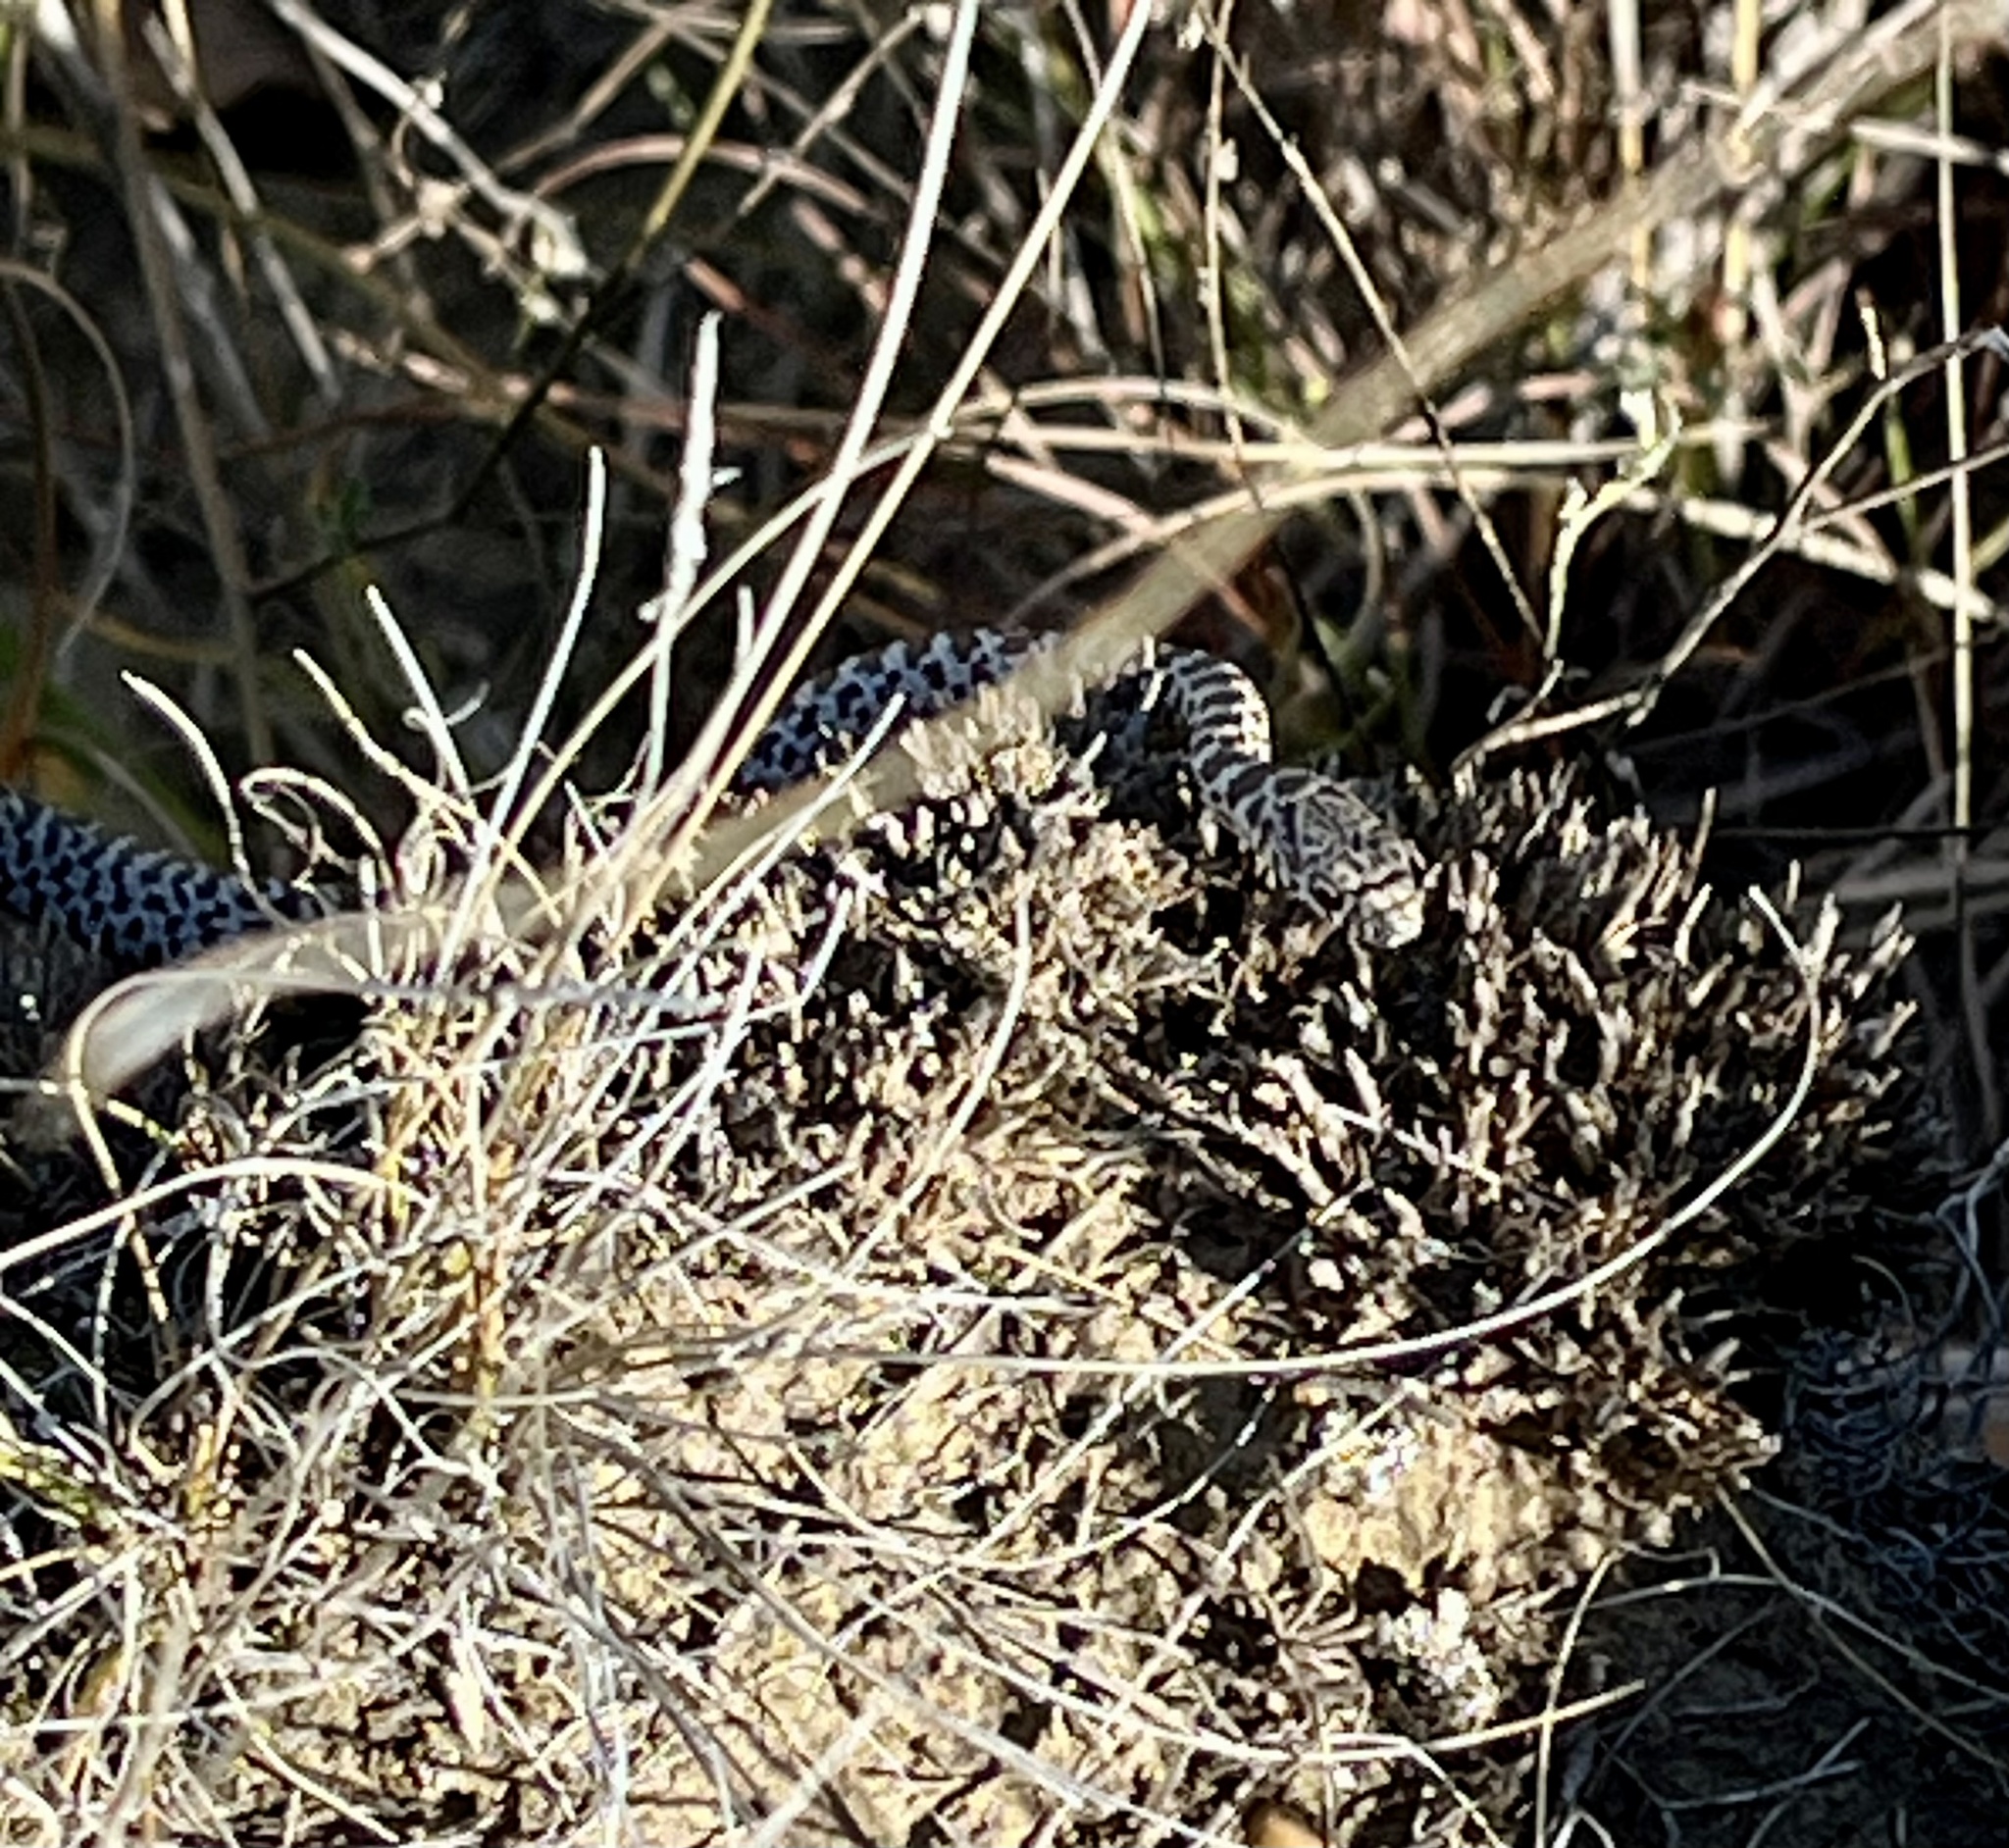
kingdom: Animalia
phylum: Chordata
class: Squamata
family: Colubridae
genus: Coluber
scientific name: Coluber constrictor
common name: Eastern racer
